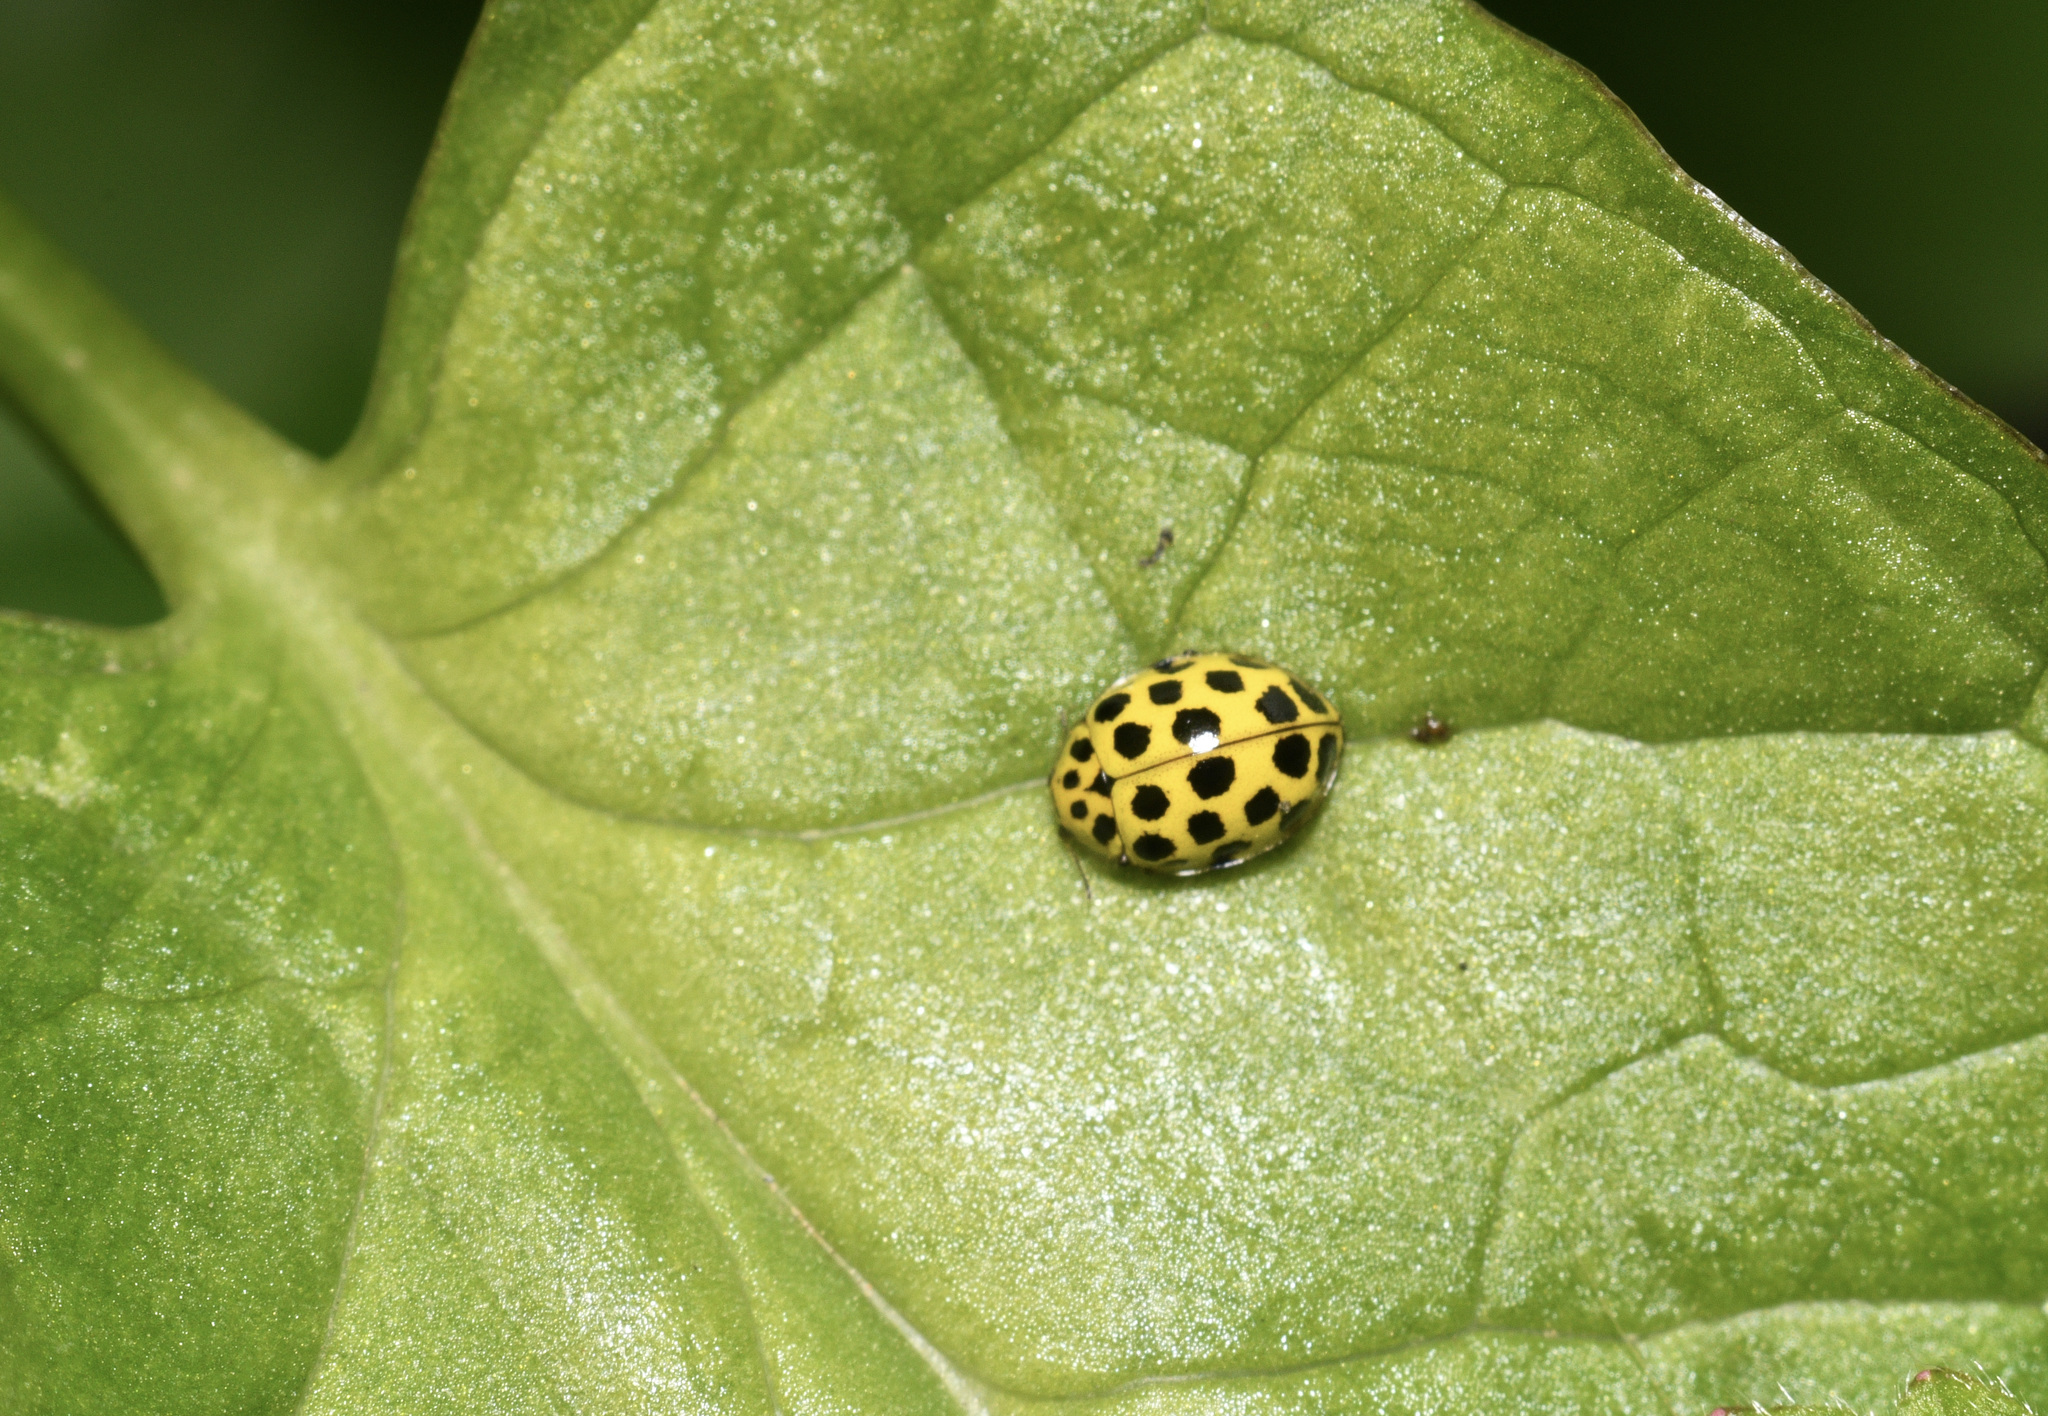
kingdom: Animalia
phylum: Arthropoda
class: Insecta
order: Coleoptera
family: Coccinellidae
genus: Psyllobora
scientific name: Psyllobora vigintiduopunctata
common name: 22-spot ladybird
